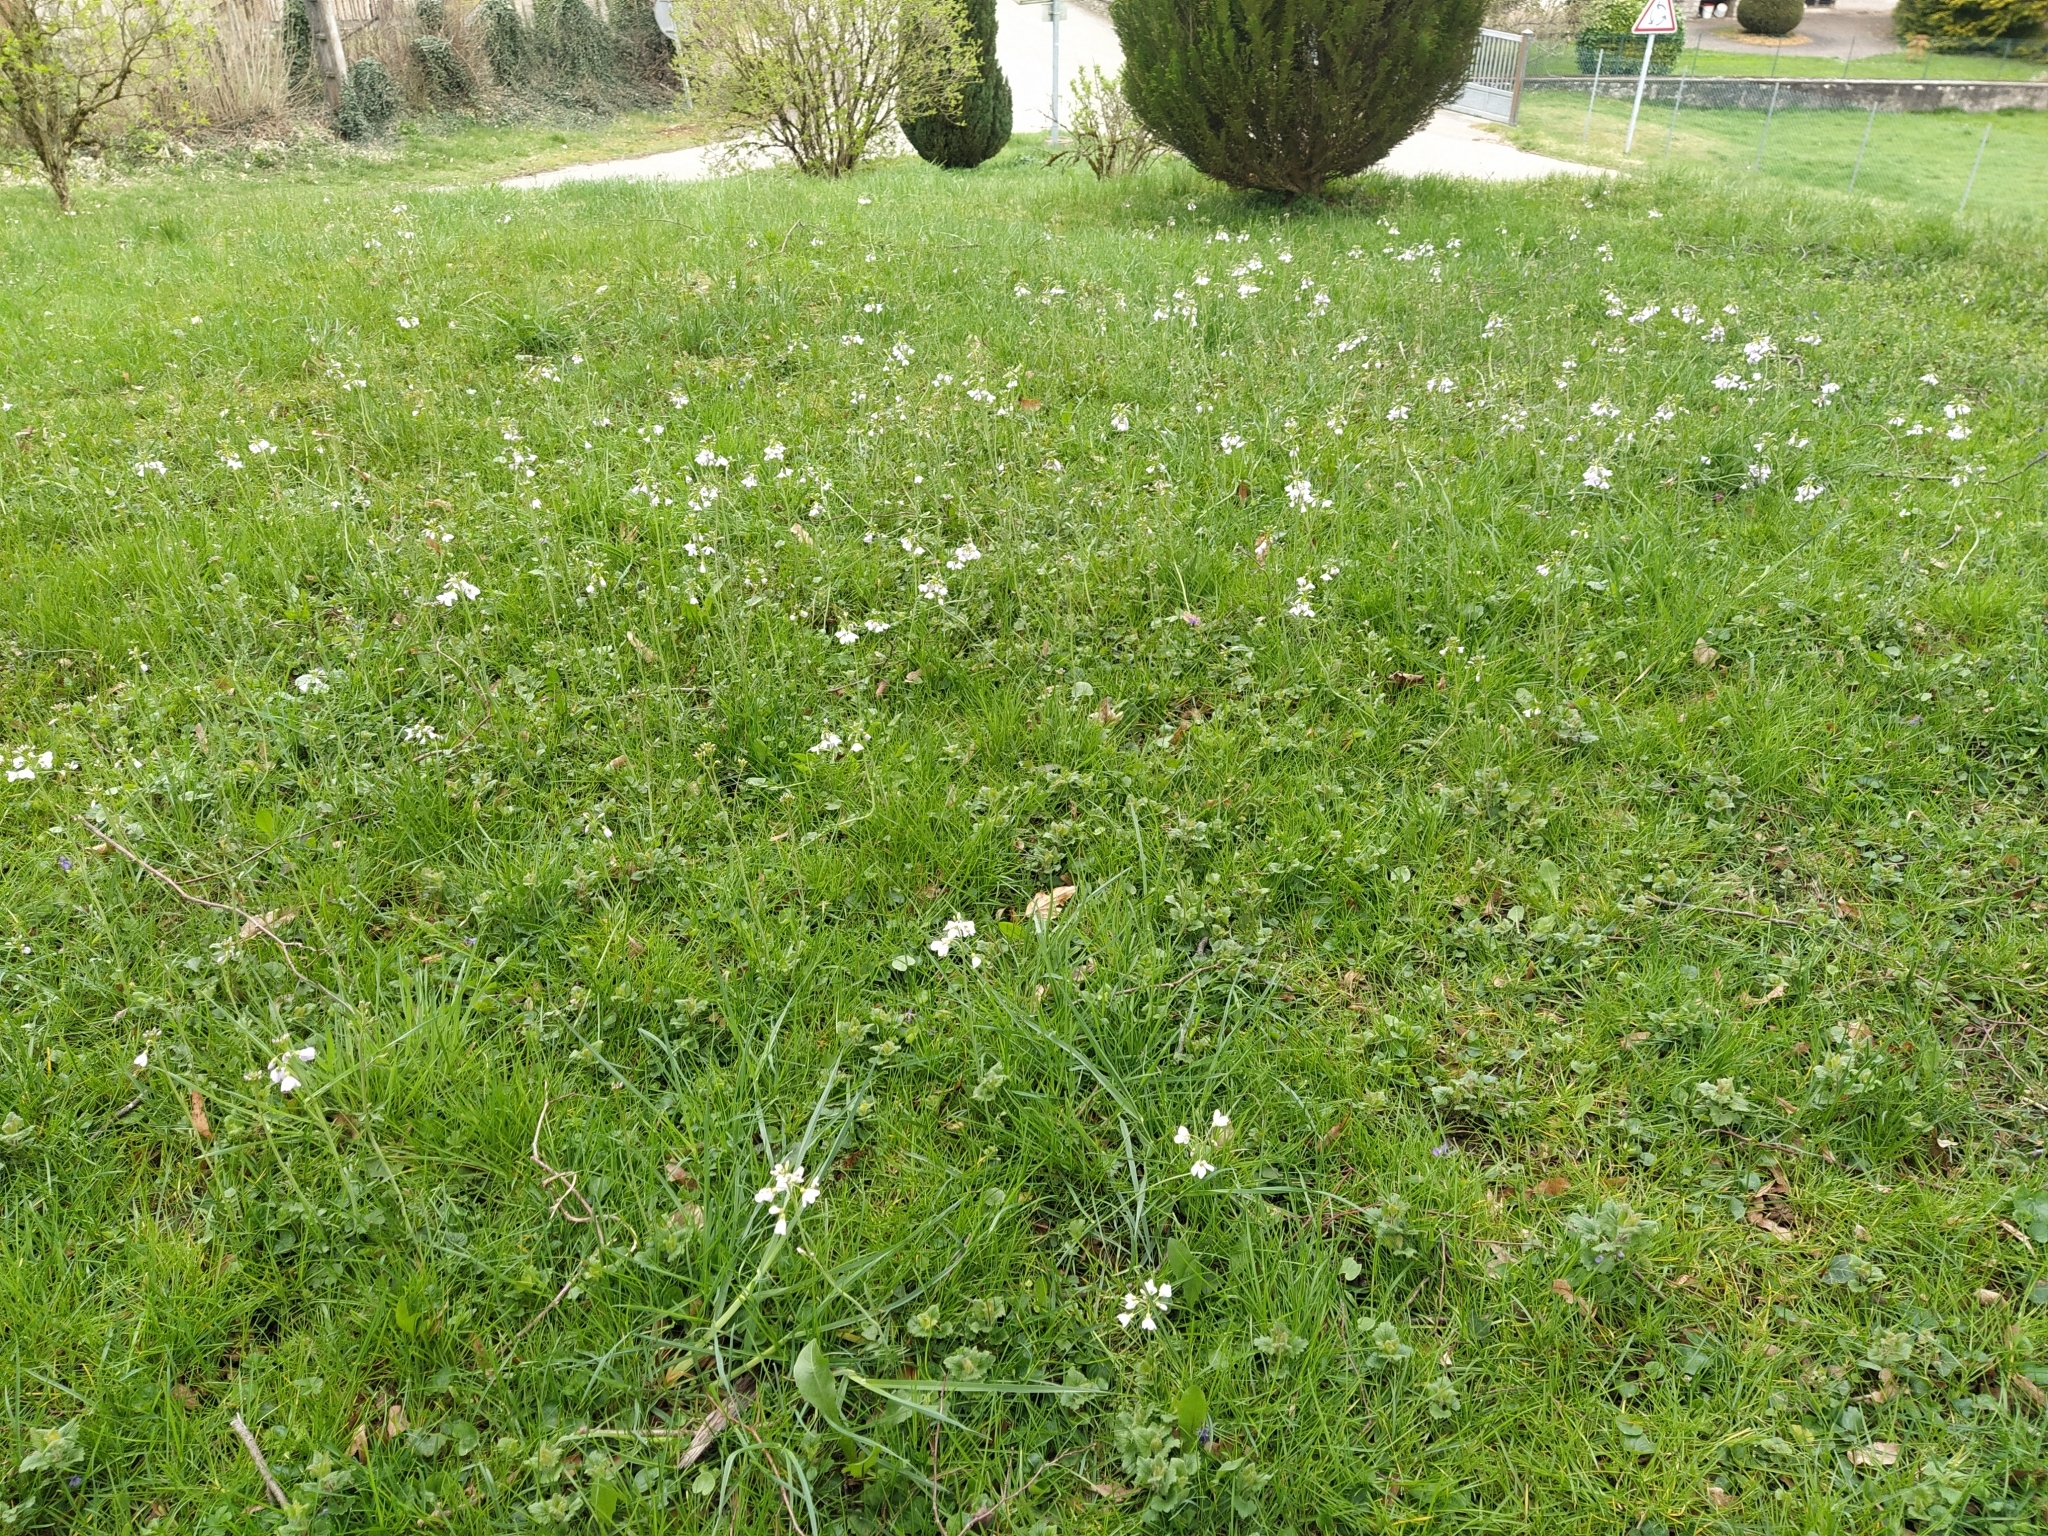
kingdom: Plantae
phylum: Tracheophyta
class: Magnoliopsida
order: Brassicales
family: Brassicaceae
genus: Cardamine
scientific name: Cardamine pratensis
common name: Cuckoo flower
